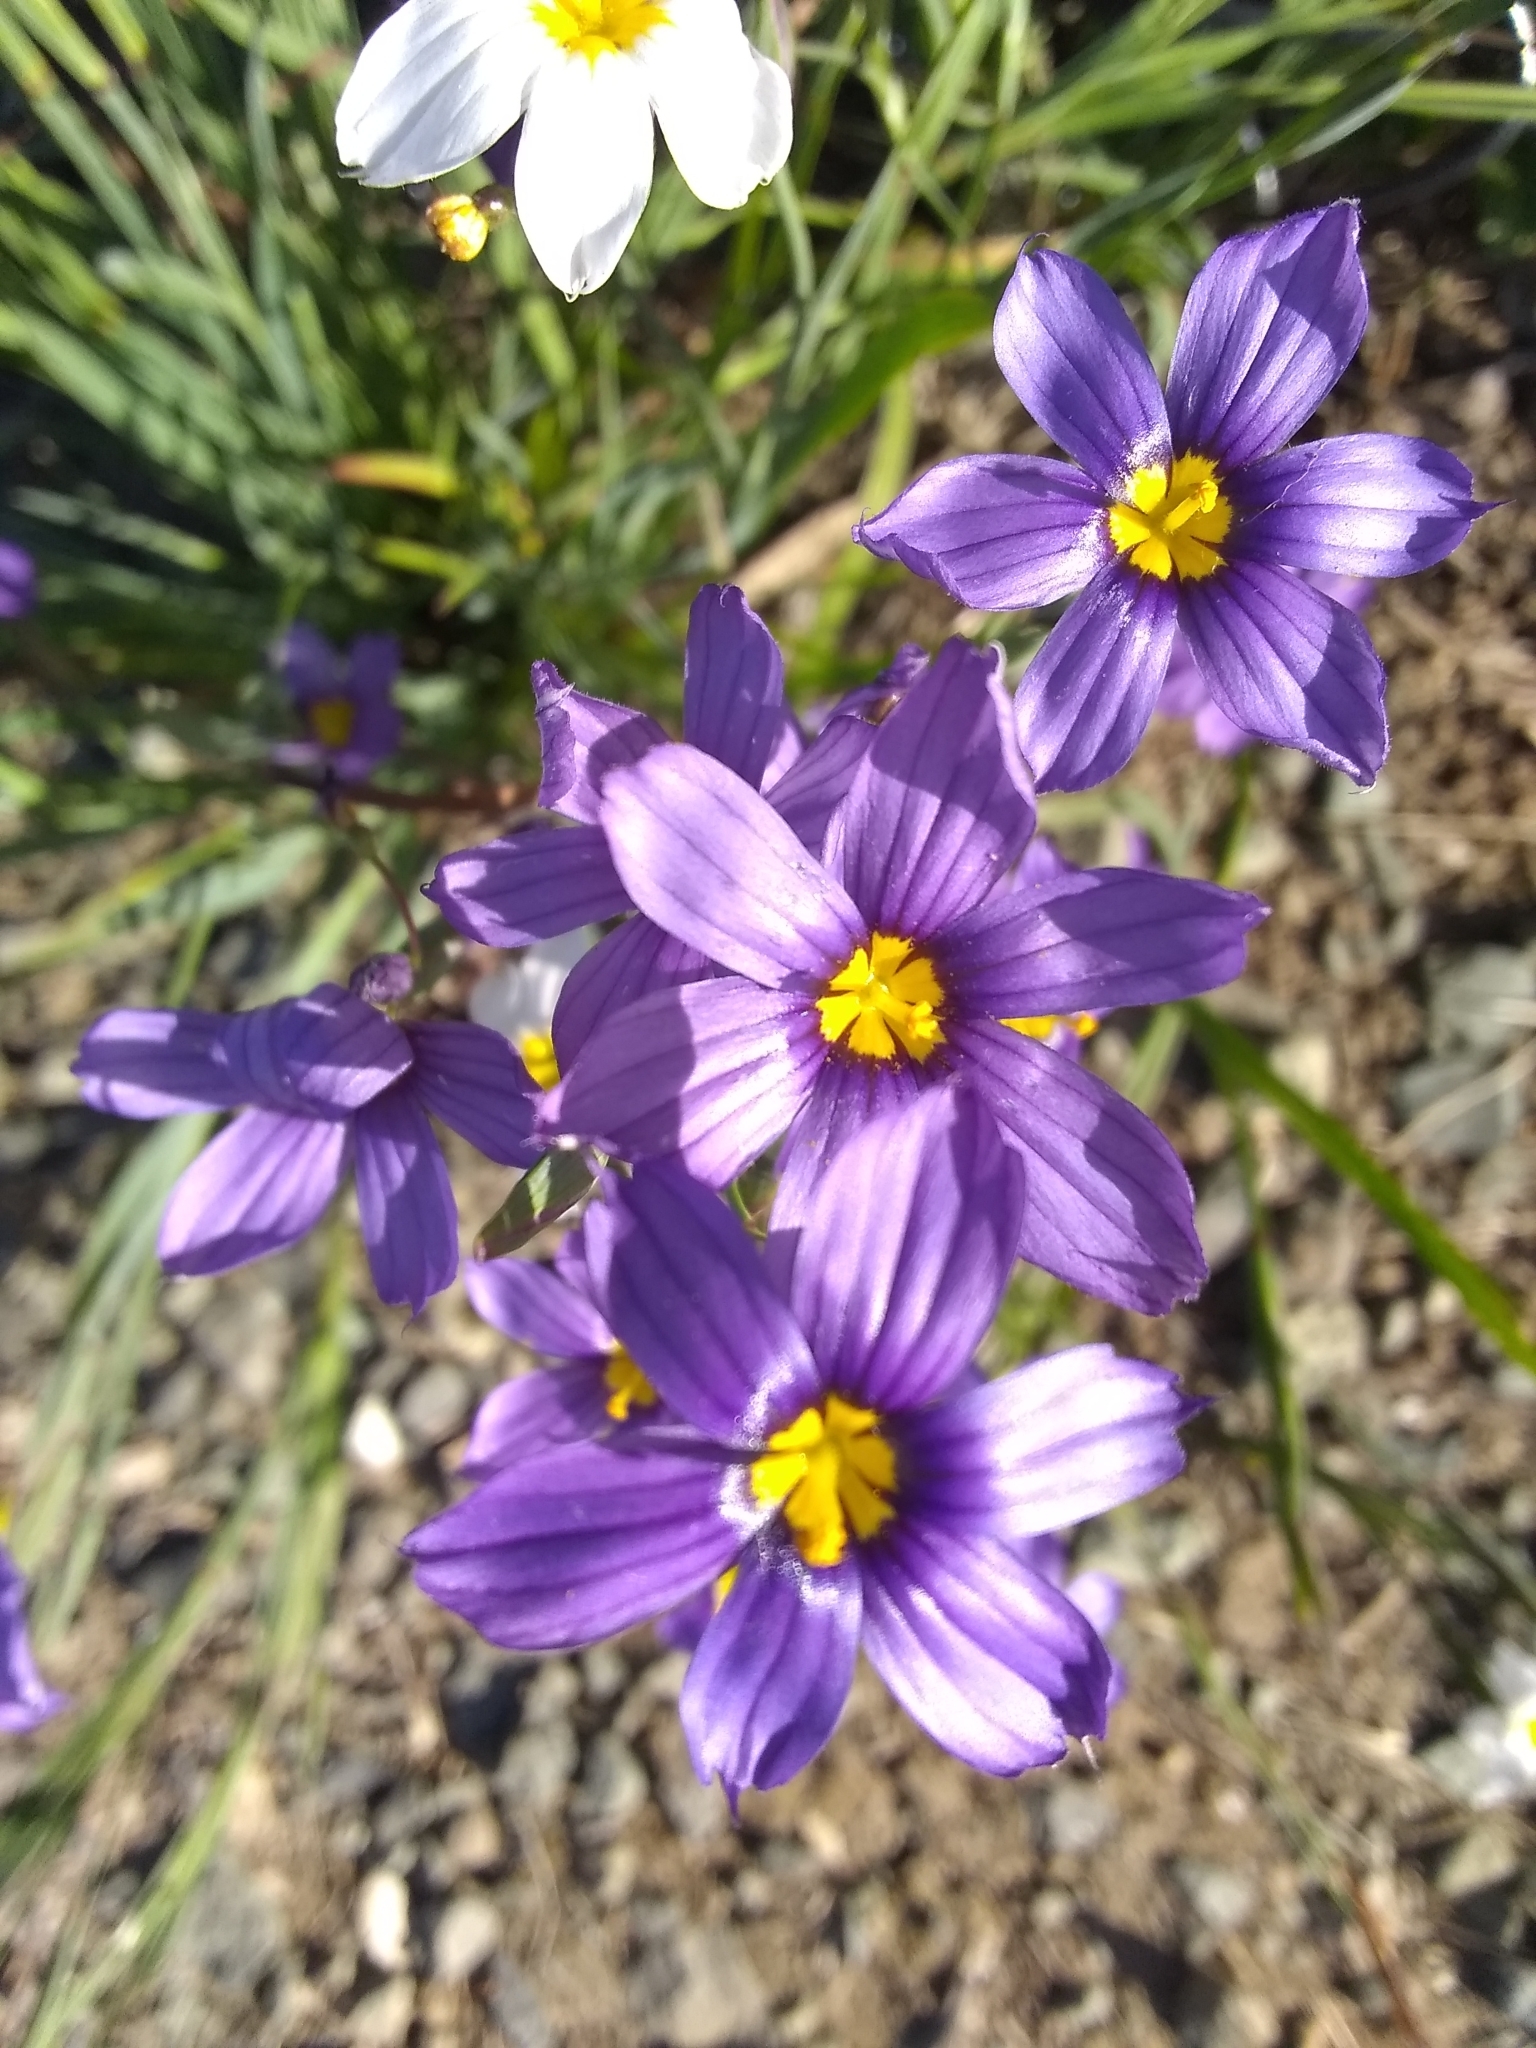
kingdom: Plantae
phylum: Tracheophyta
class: Liliopsida
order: Asparagales
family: Iridaceae
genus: Sisyrinchium
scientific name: Sisyrinchium bellum
